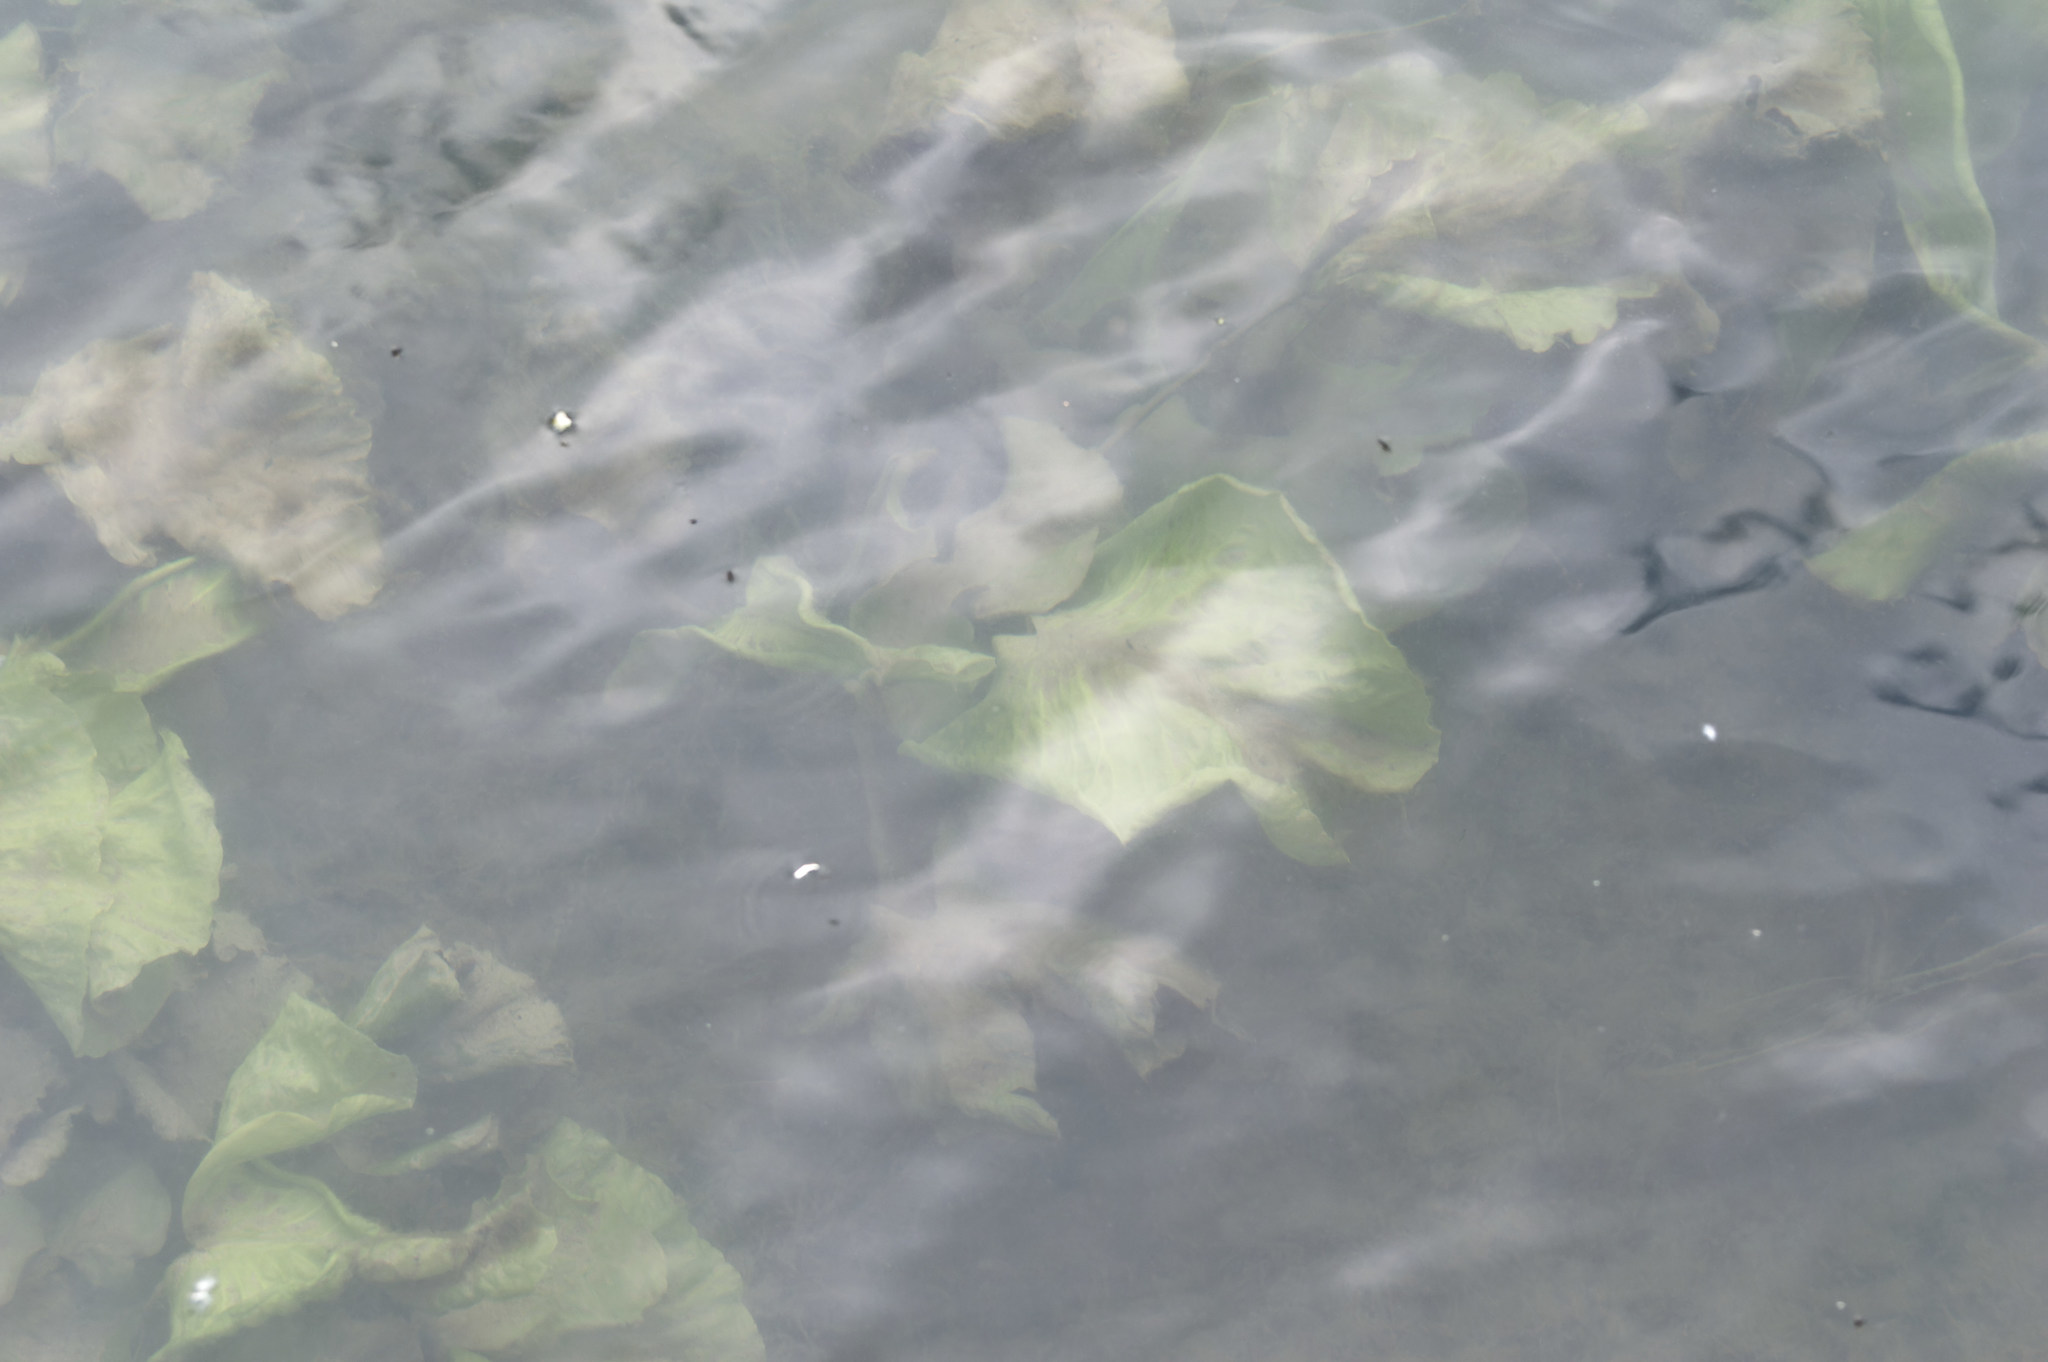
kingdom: Plantae
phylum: Tracheophyta
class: Magnoliopsida
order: Nymphaeales
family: Nymphaeaceae
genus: Nuphar
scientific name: Nuphar lutea
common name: Yellow water-lily
